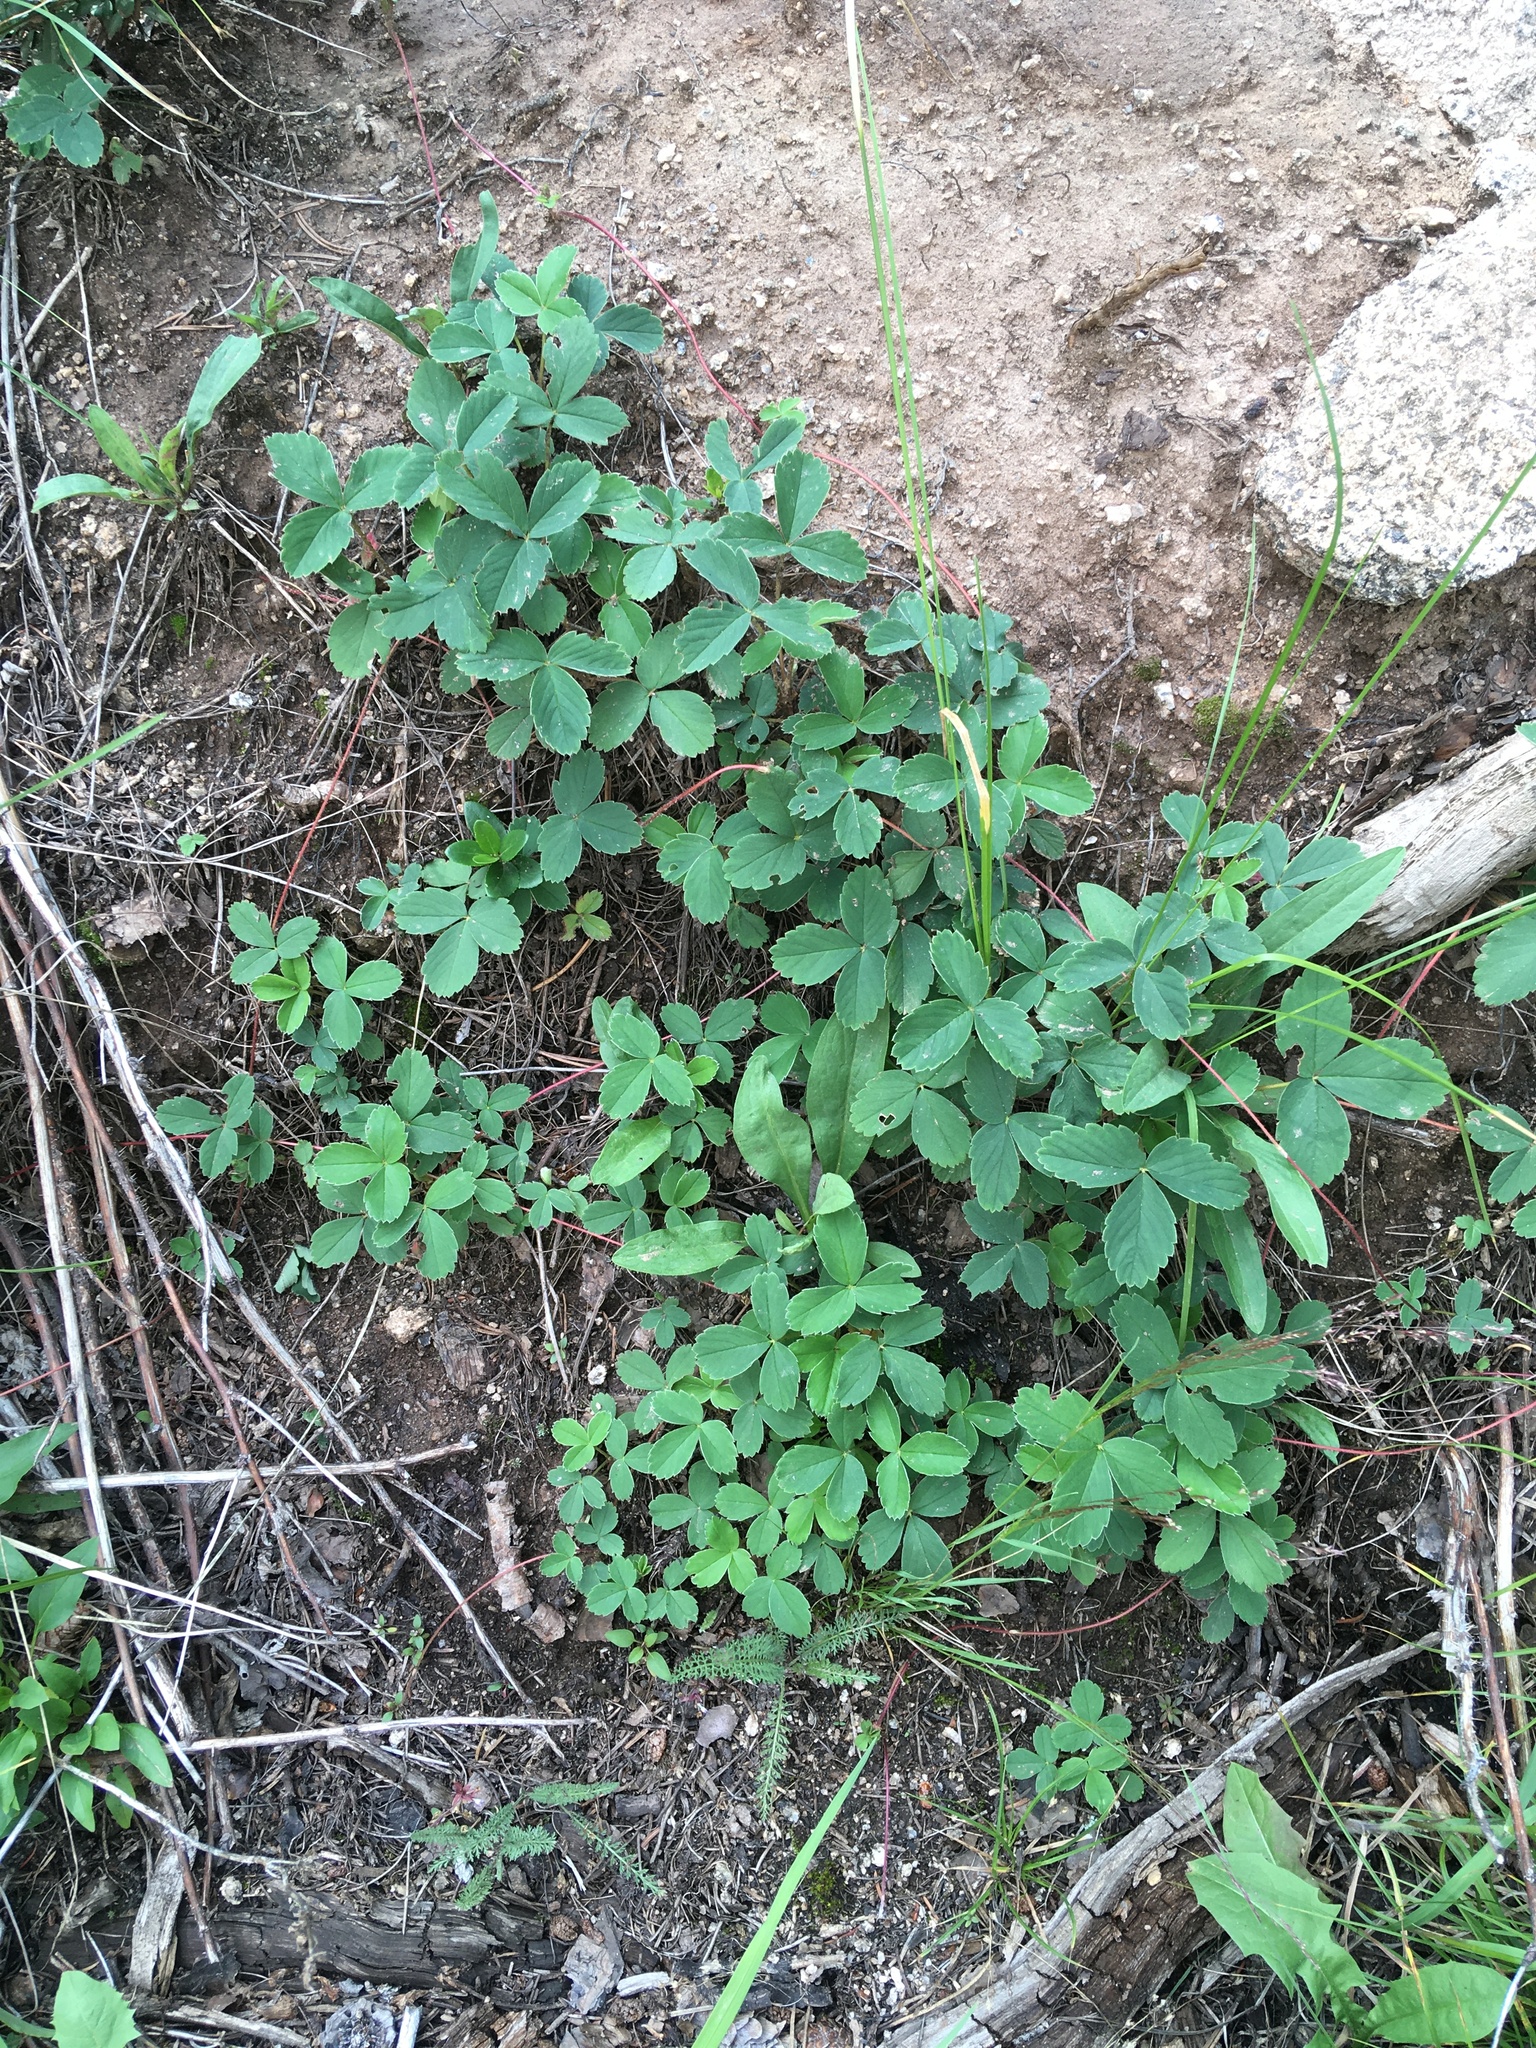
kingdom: Plantae
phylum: Tracheophyta
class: Magnoliopsida
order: Rosales
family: Rosaceae
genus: Fragaria
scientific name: Fragaria virginiana
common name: Thickleaved wild strawberry
